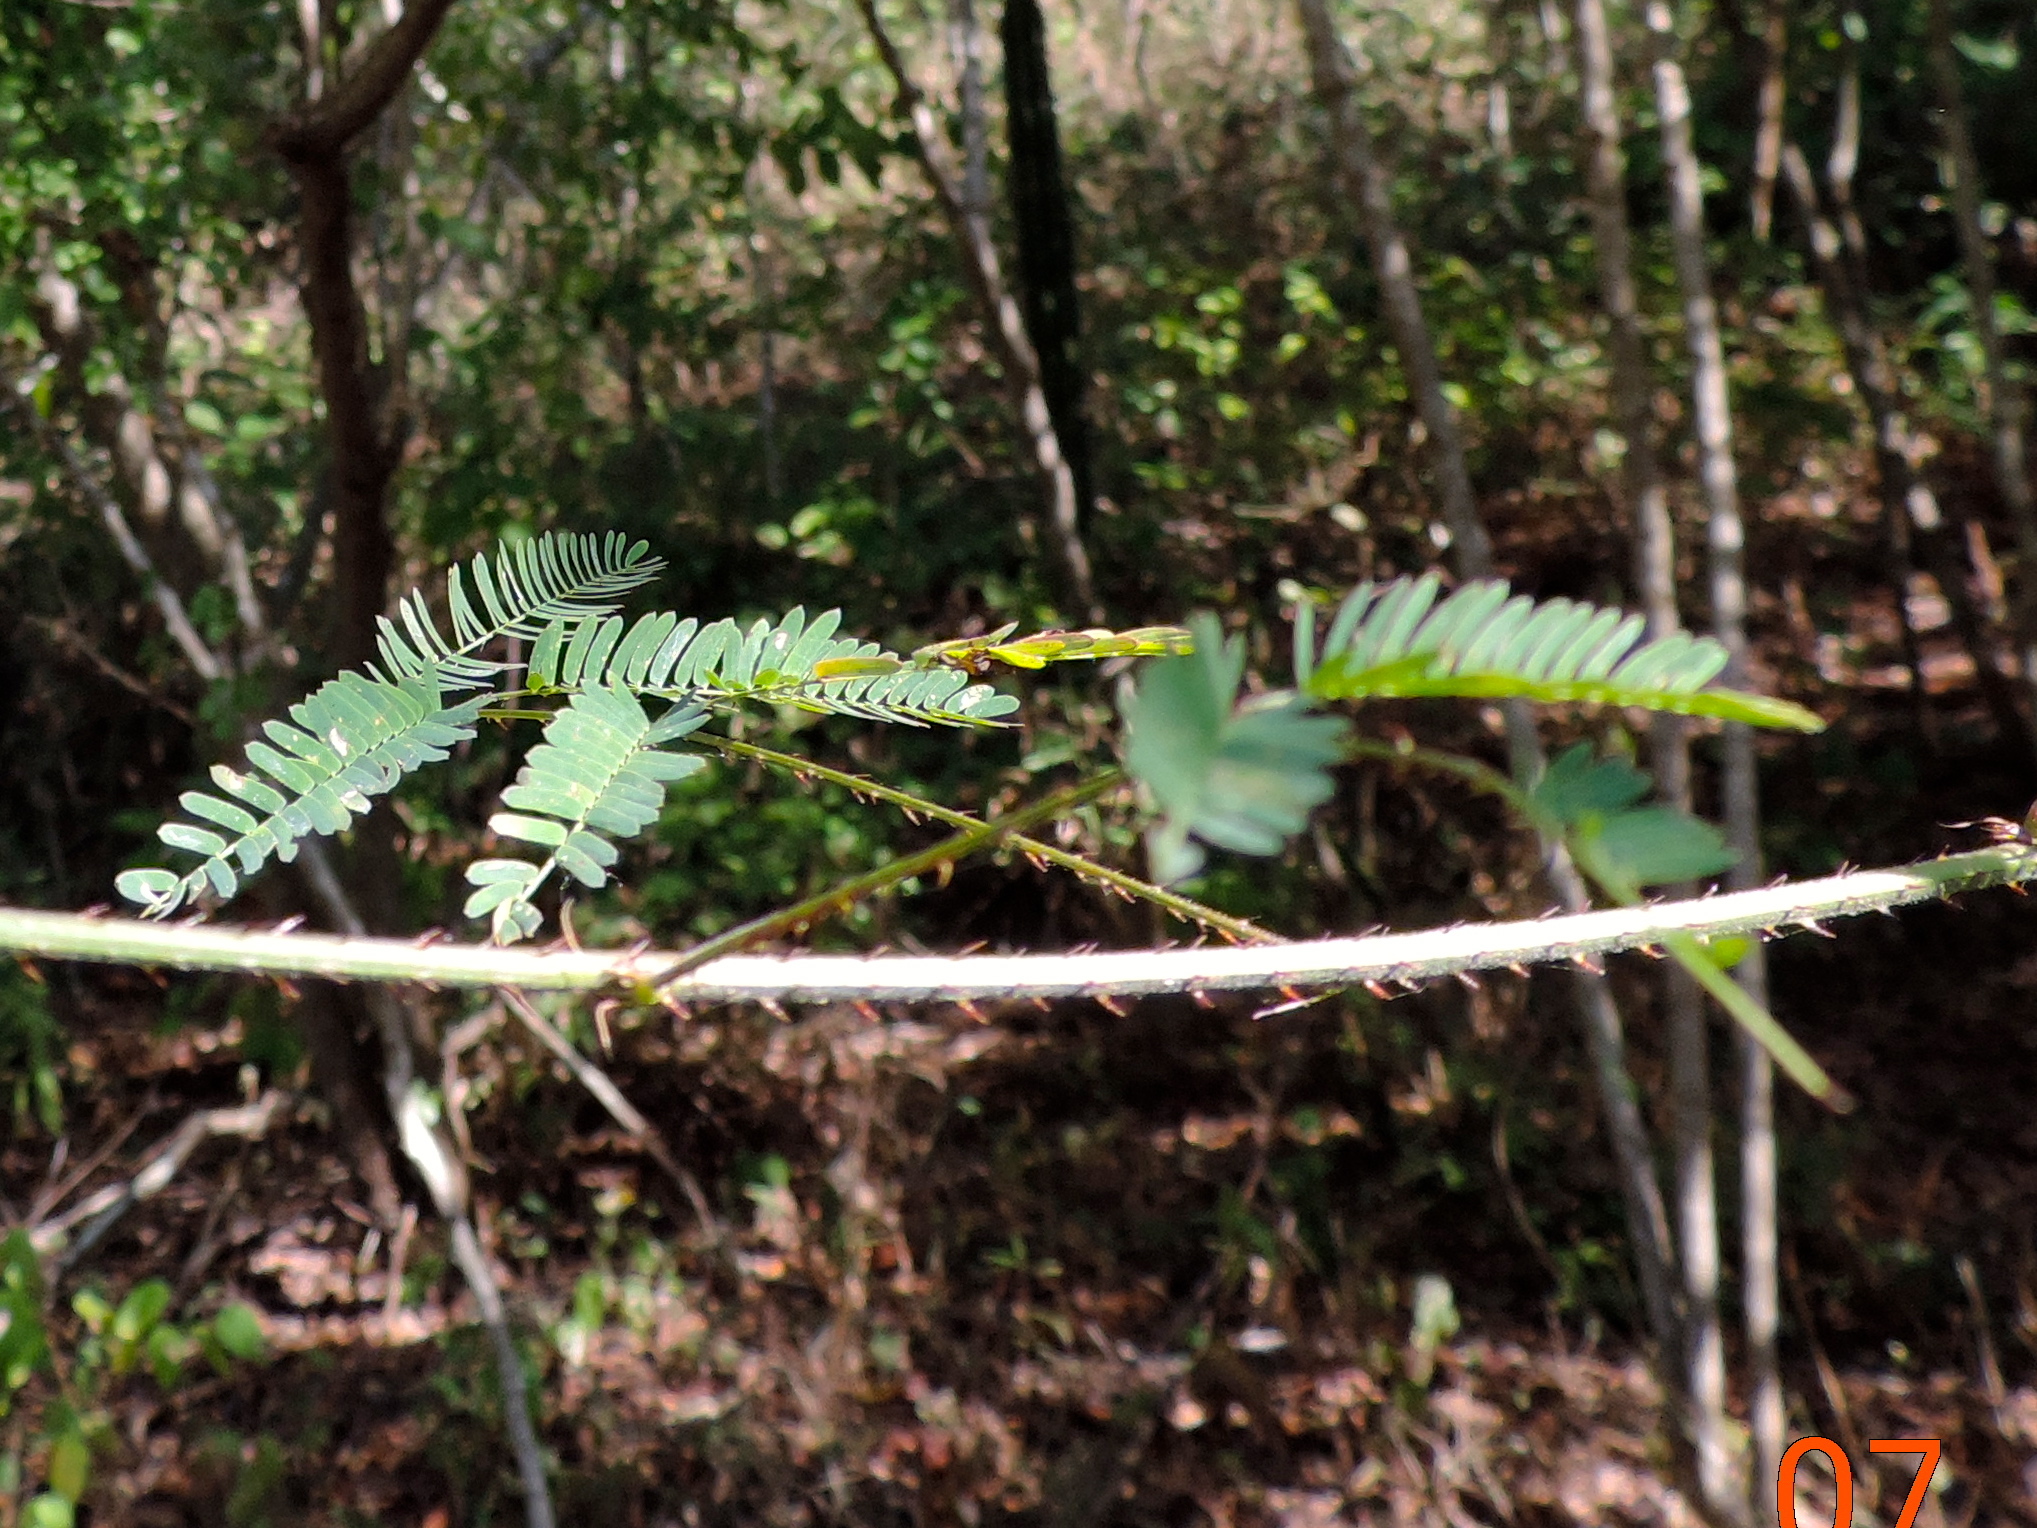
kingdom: Plantae
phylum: Tracheophyta
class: Magnoliopsida
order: Fabales
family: Fabaceae
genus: Mimosa
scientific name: Mimosa quadrivalvis
